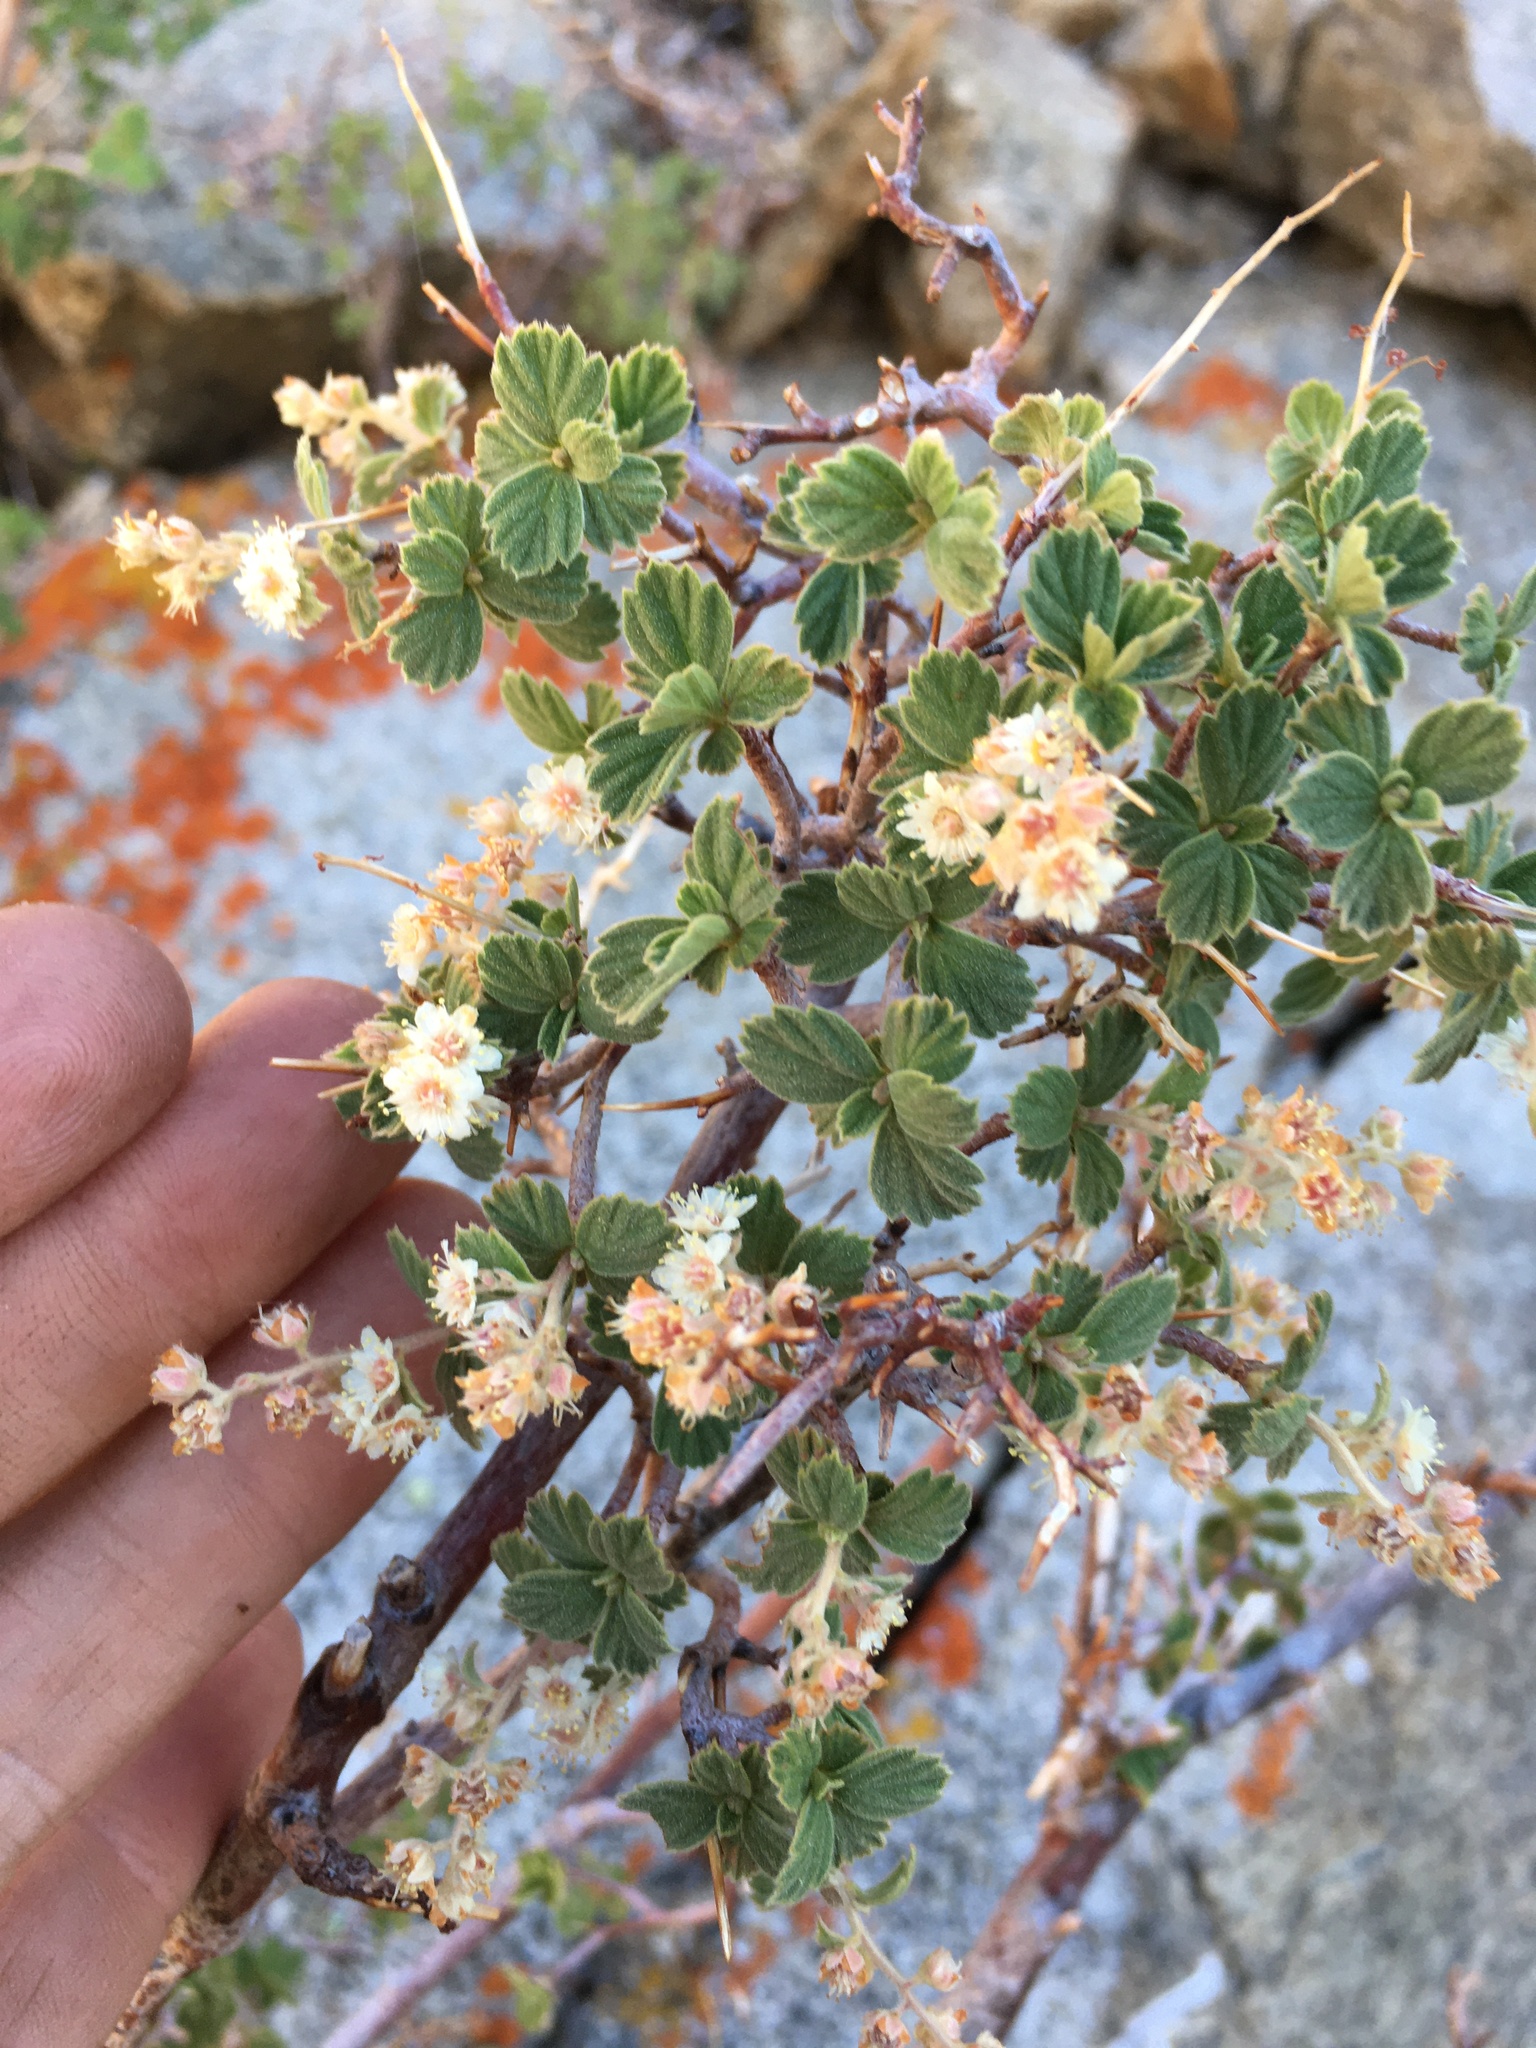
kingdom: Plantae
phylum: Tracheophyta
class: Magnoliopsida
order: Rosales
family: Rosaceae
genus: Holodiscus
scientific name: Holodiscus discolor
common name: Oceanspray
